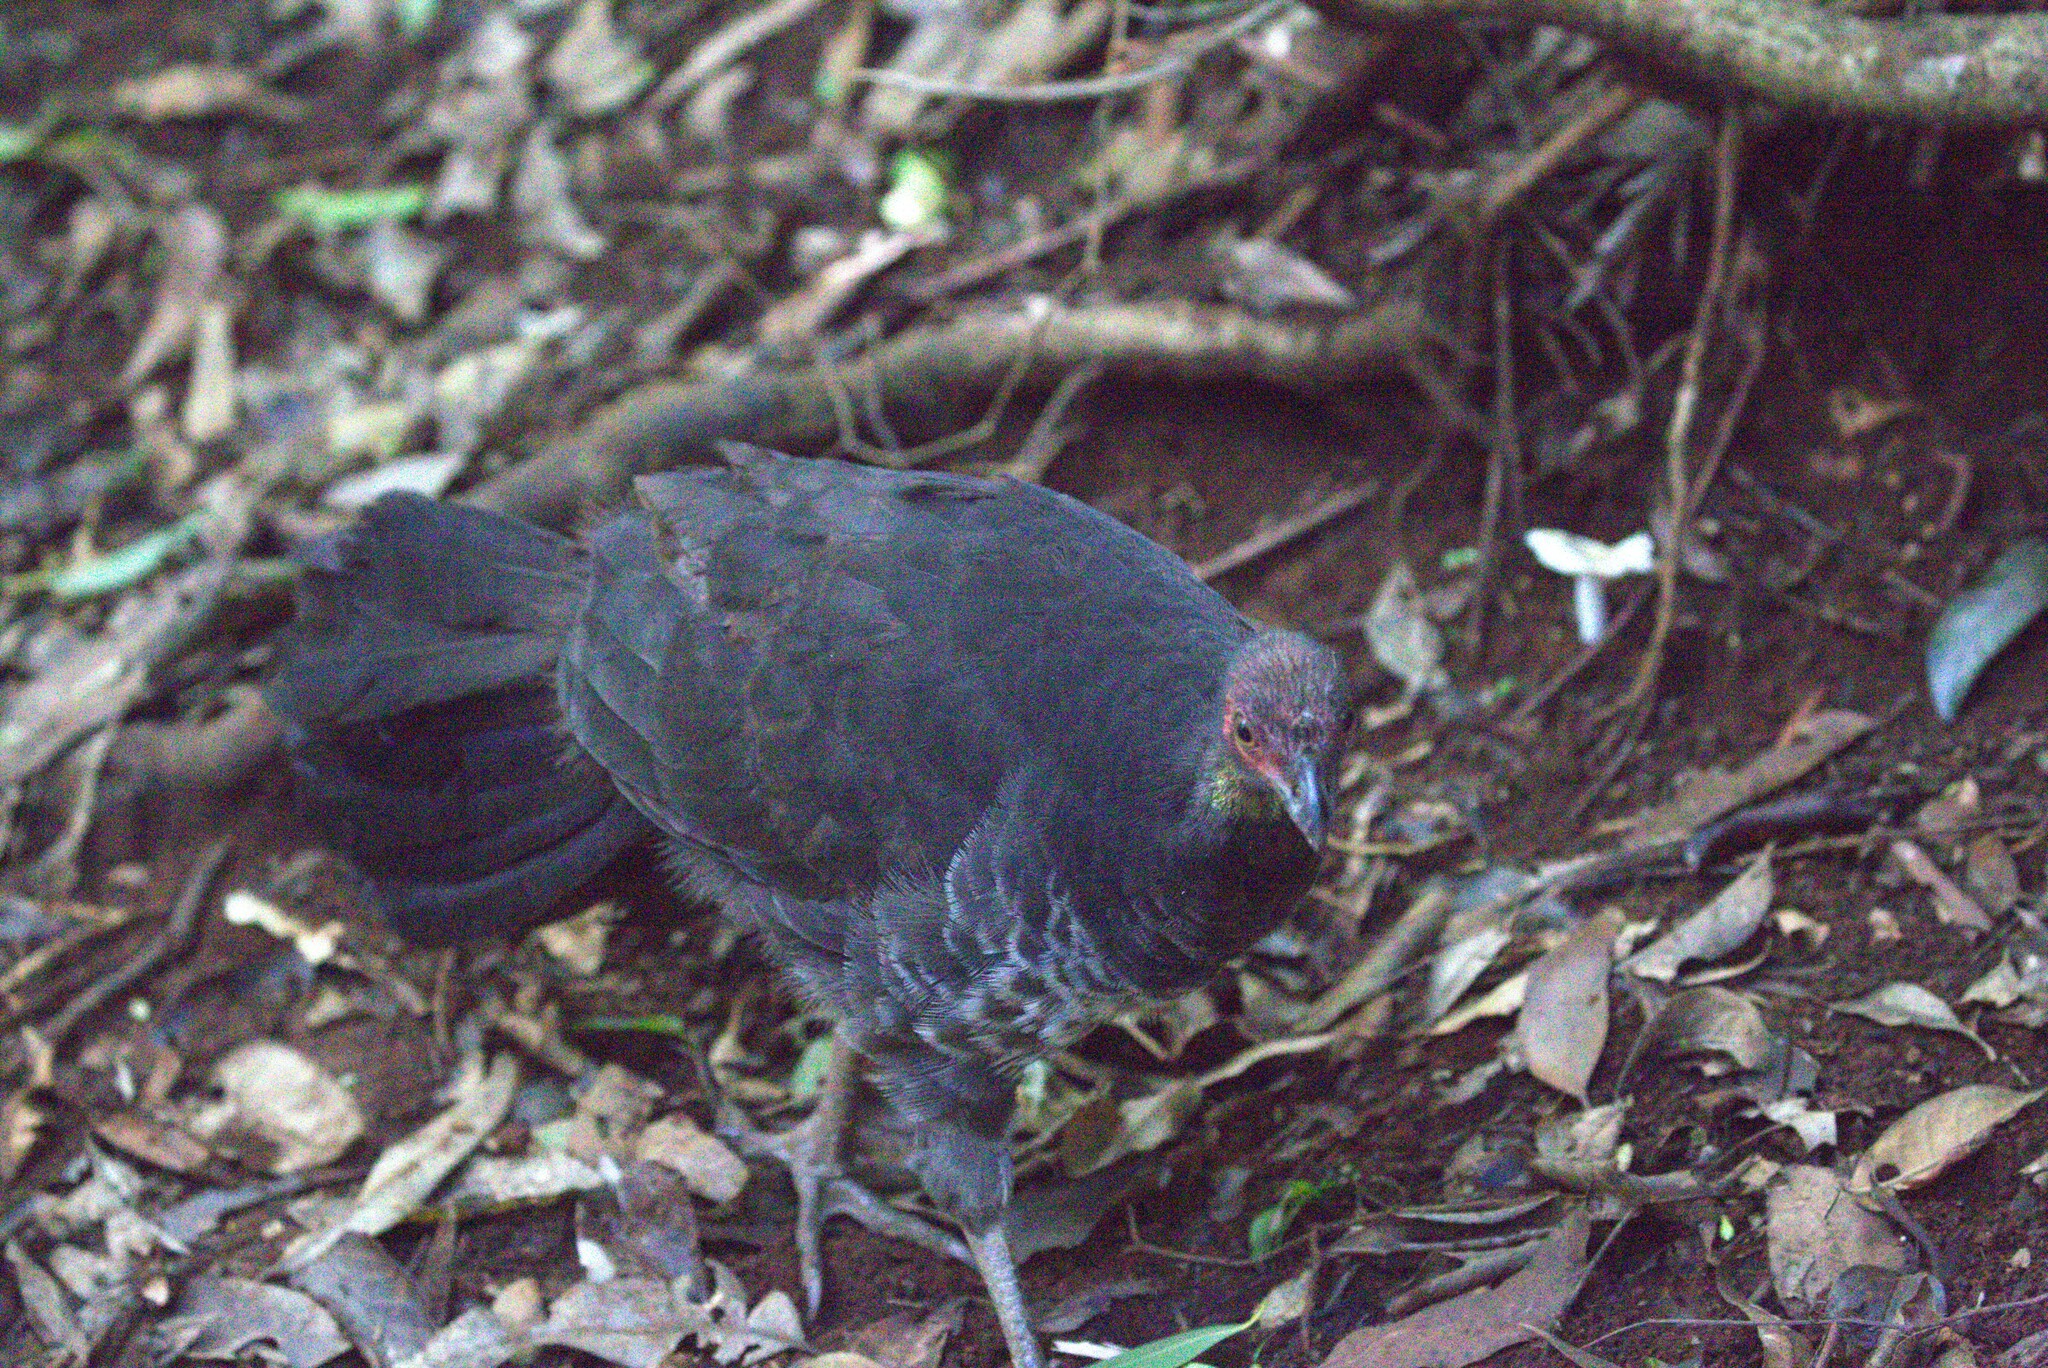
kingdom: Animalia
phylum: Chordata
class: Aves
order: Galliformes
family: Megapodiidae
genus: Alectura
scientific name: Alectura lathami
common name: Australian brushturkey
